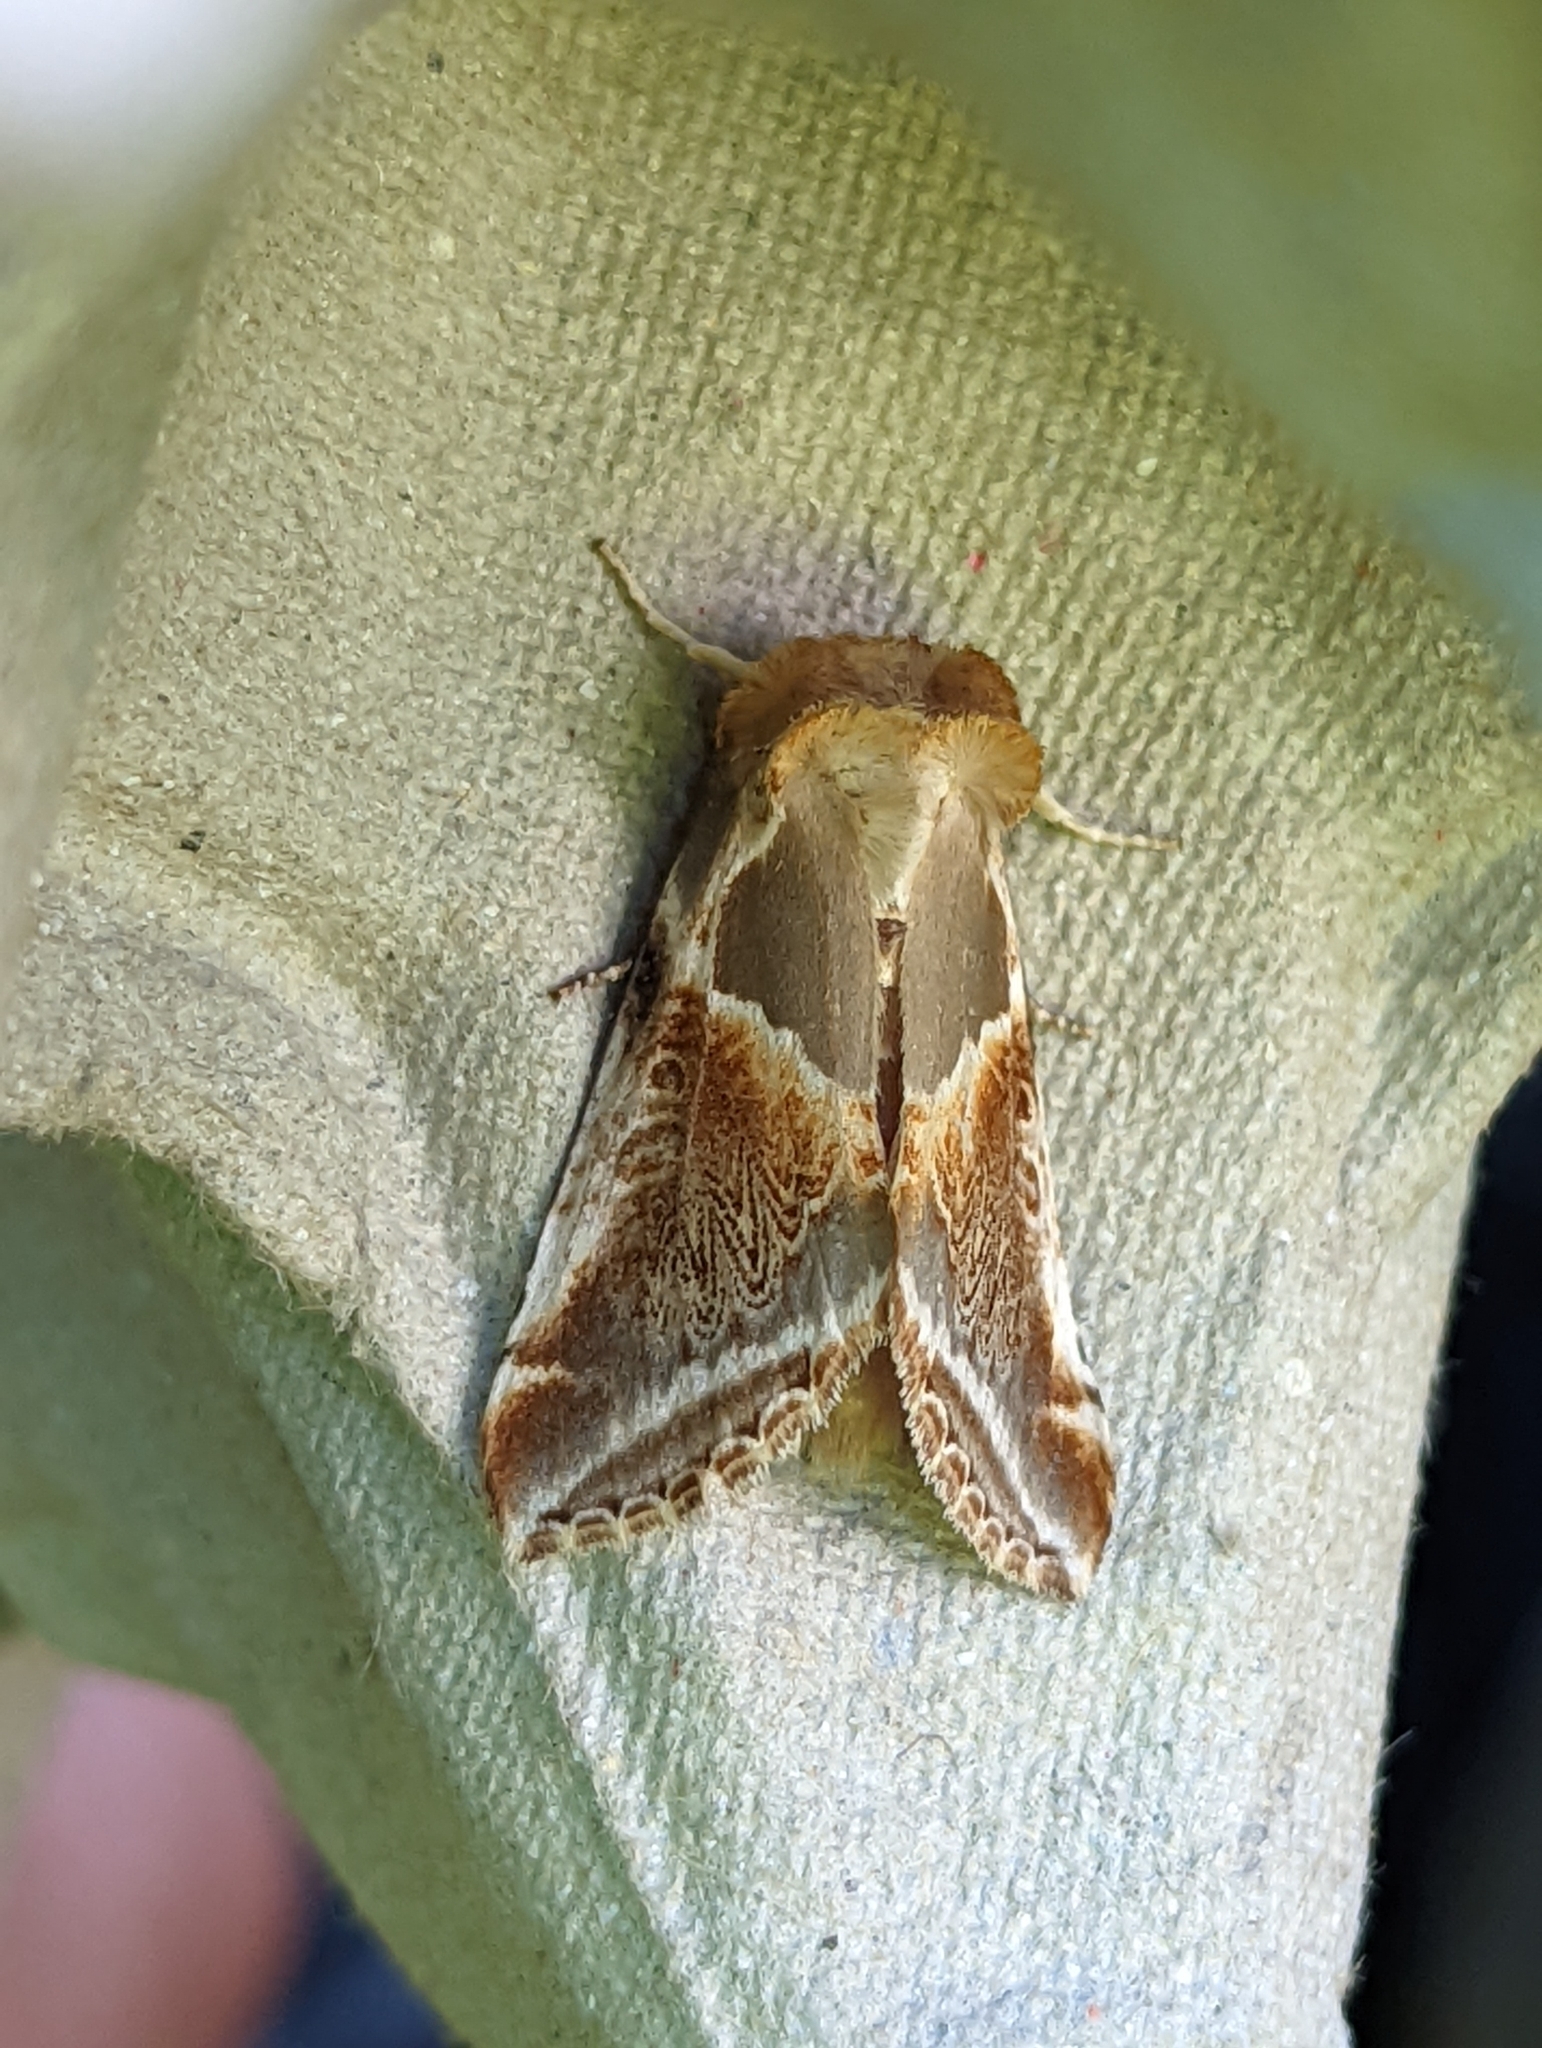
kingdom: Animalia
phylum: Arthropoda
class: Insecta
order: Lepidoptera
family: Drepanidae
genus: Habrosyne
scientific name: Habrosyne pyritoides
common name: Buff arches
